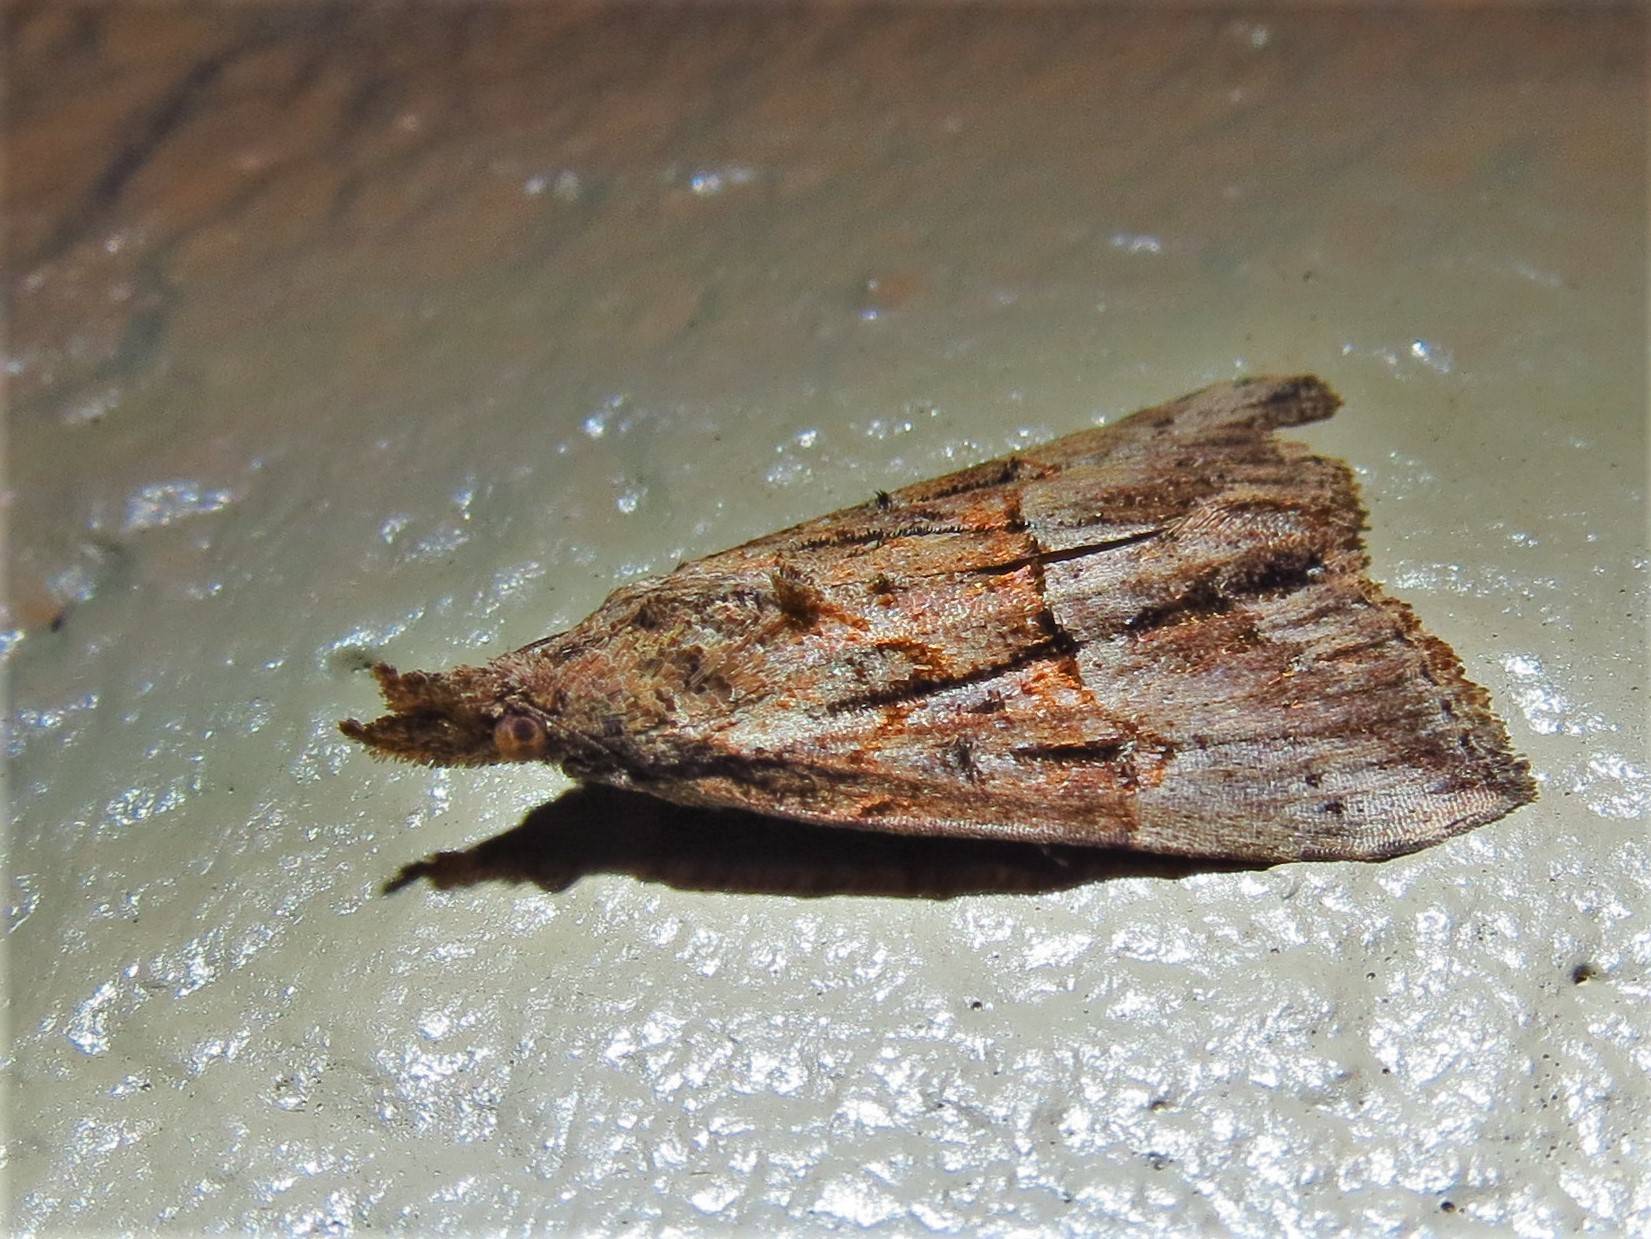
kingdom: Animalia
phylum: Arthropoda
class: Insecta
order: Lepidoptera
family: Erebidae
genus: Hypena
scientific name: Hypena scabra
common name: Green cloverworm
